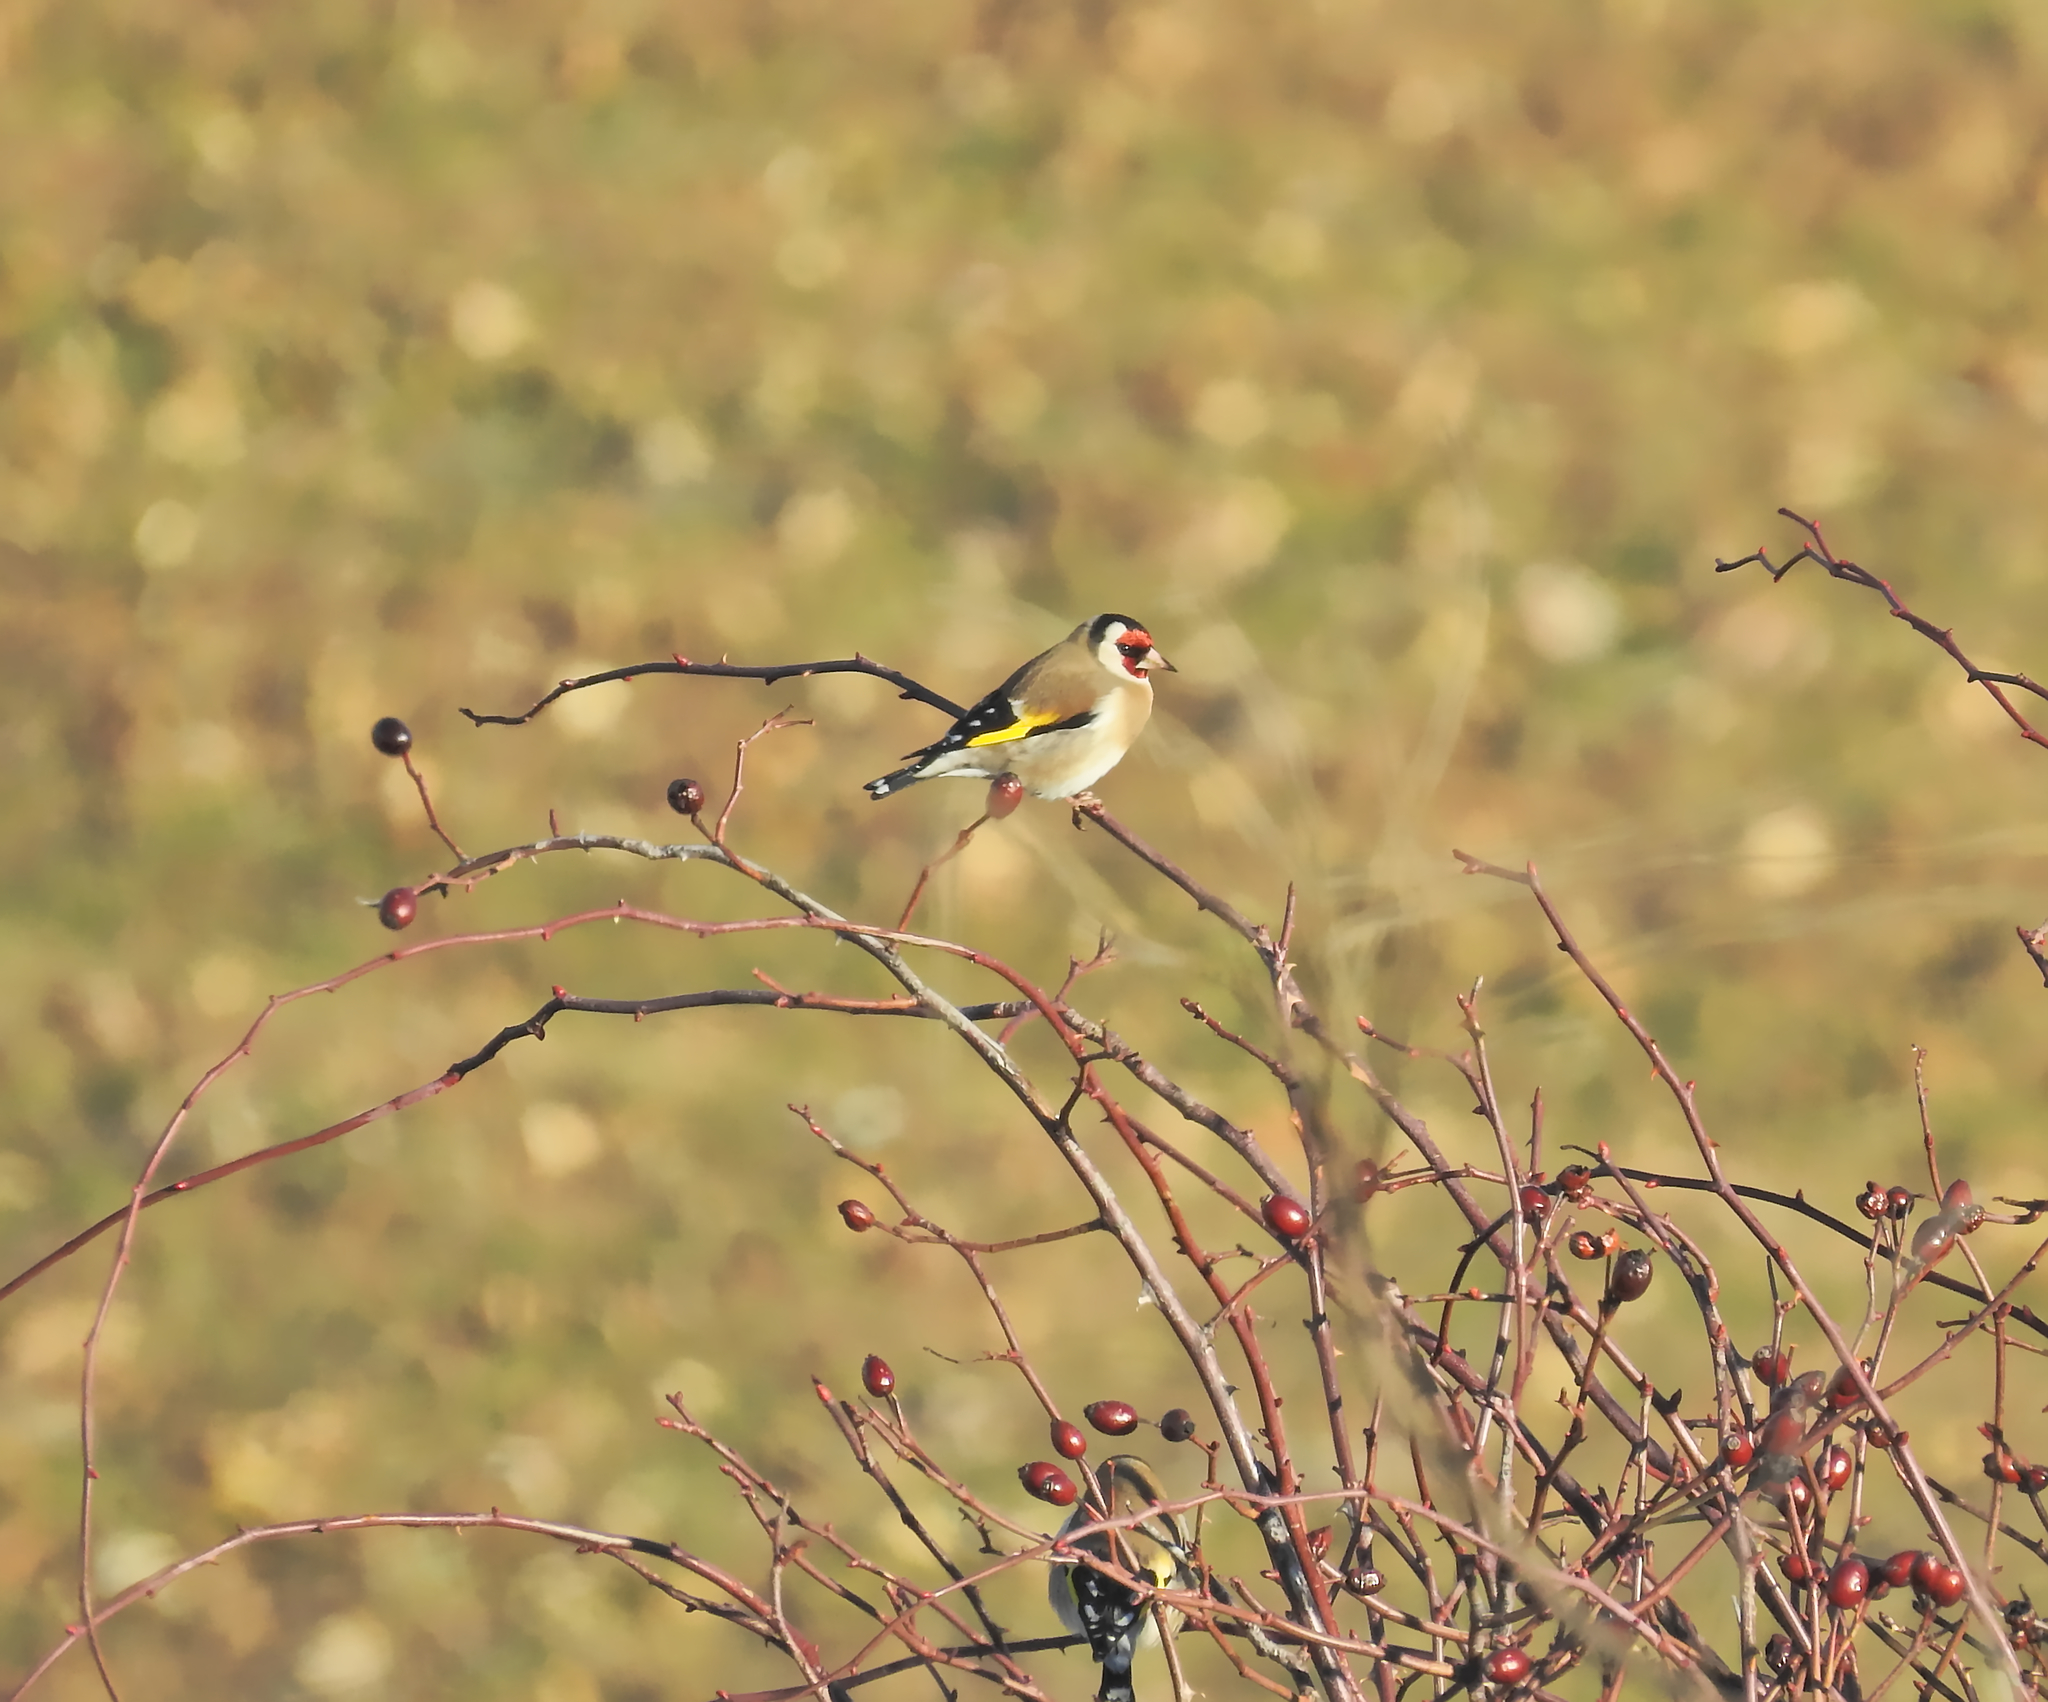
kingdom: Animalia
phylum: Chordata
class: Aves
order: Passeriformes
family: Fringillidae
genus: Carduelis
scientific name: Carduelis carduelis
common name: European goldfinch
